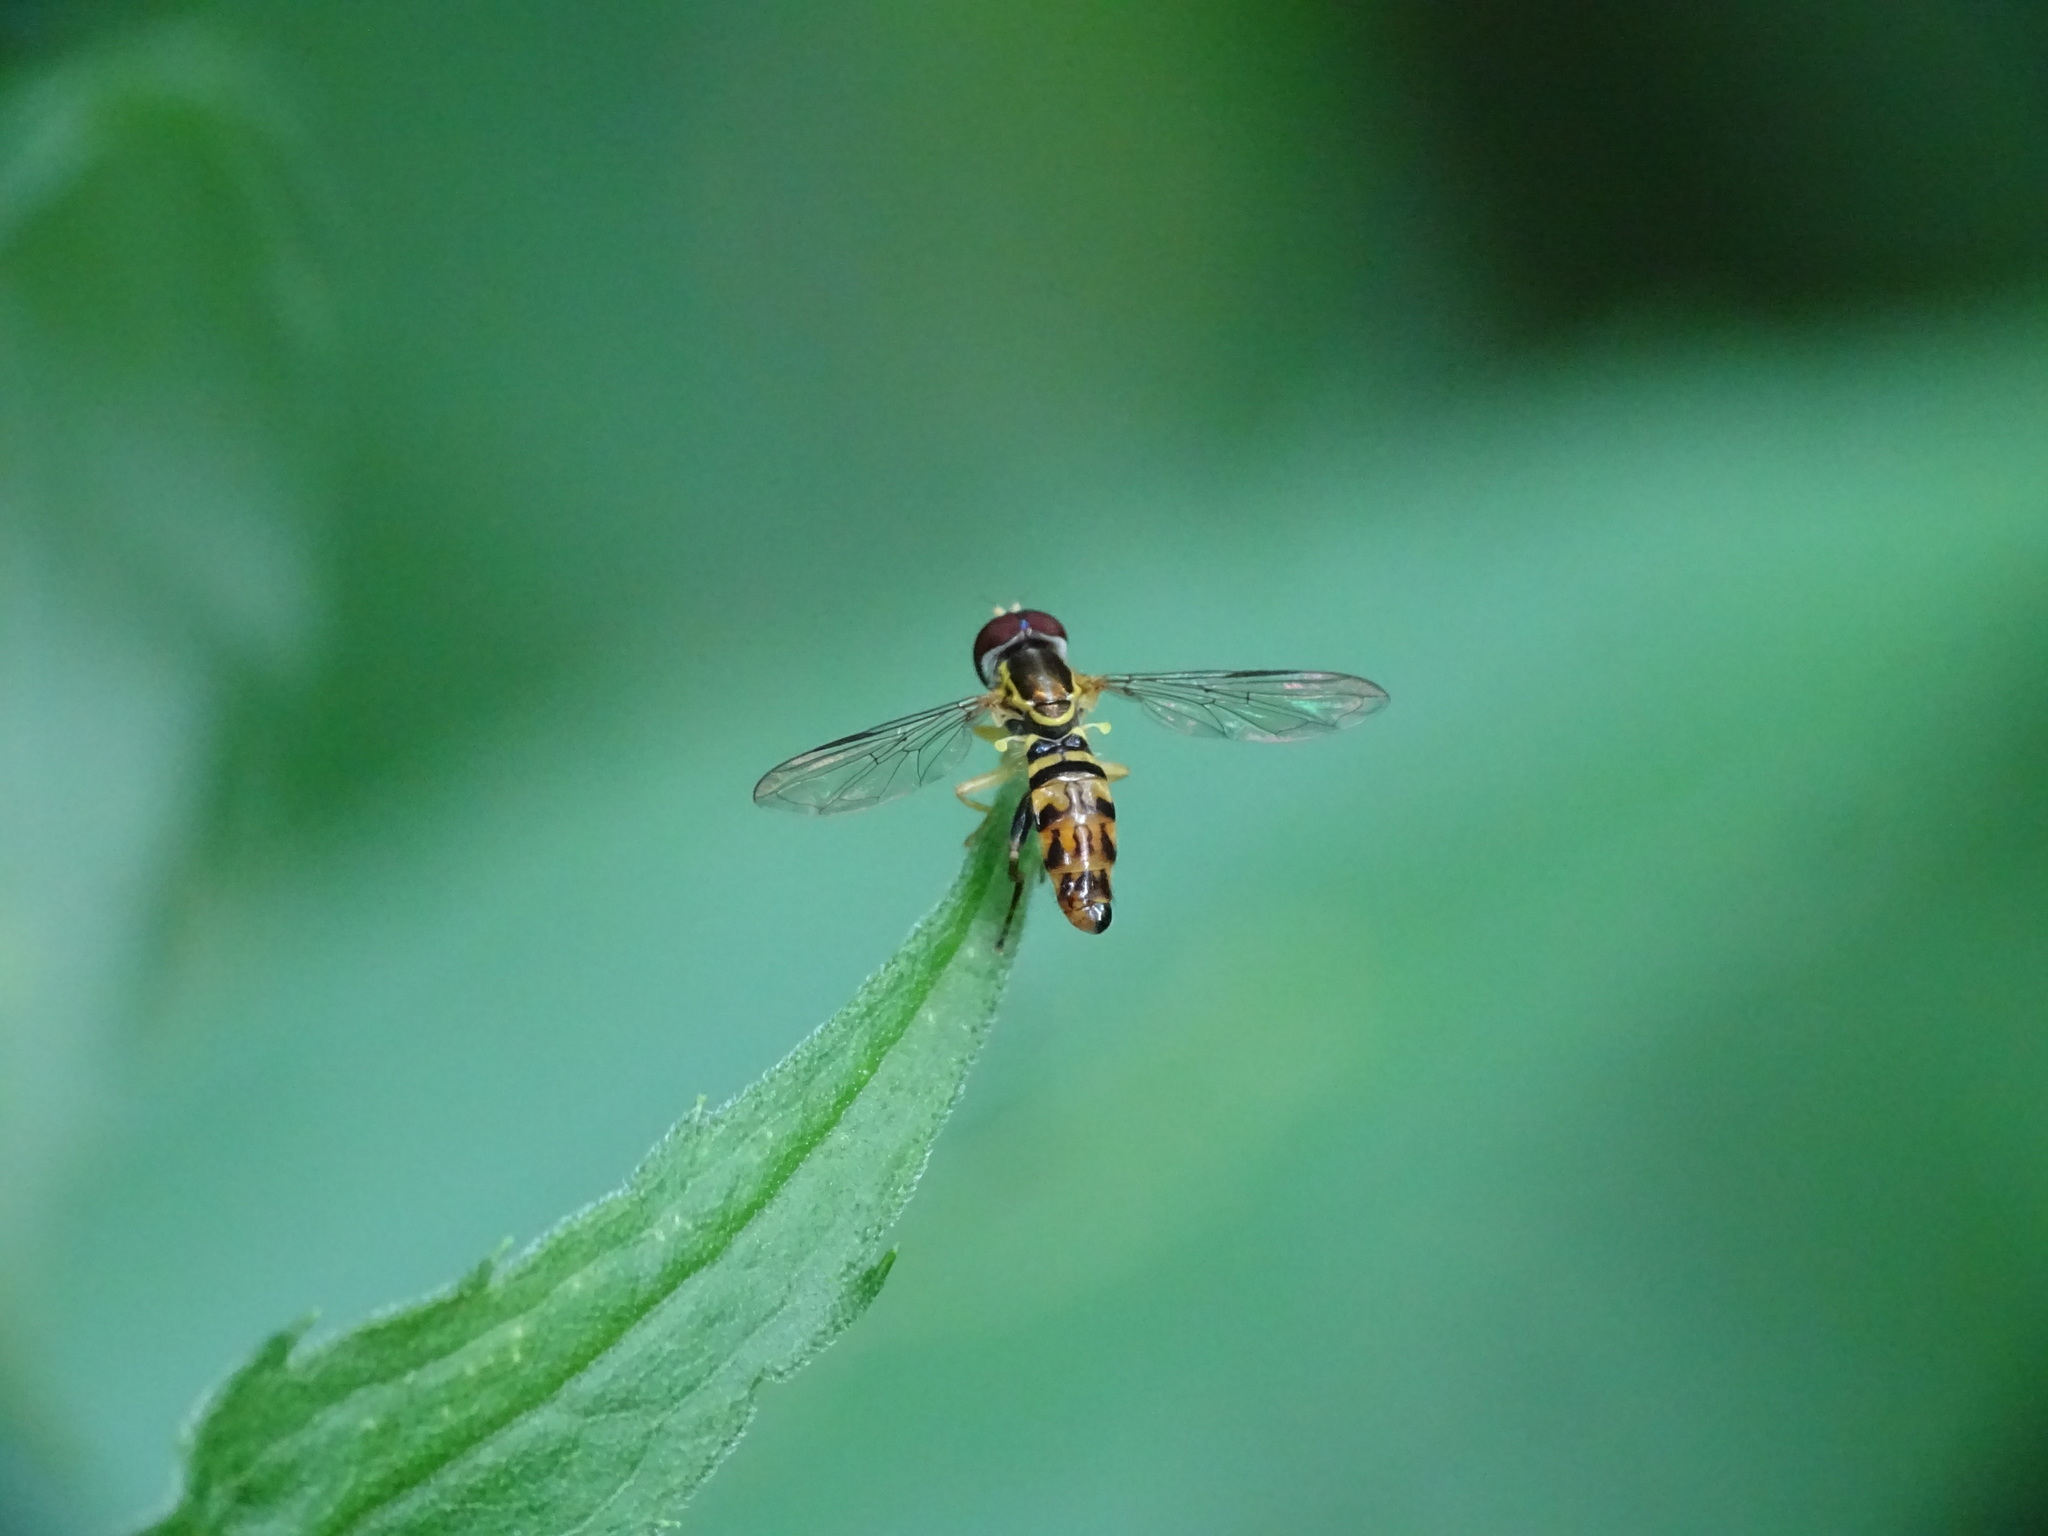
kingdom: Animalia
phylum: Arthropoda
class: Insecta
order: Diptera
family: Syrphidae
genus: Toxomerus
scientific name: Toxomerus geminatus
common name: Eastern calligrapher
